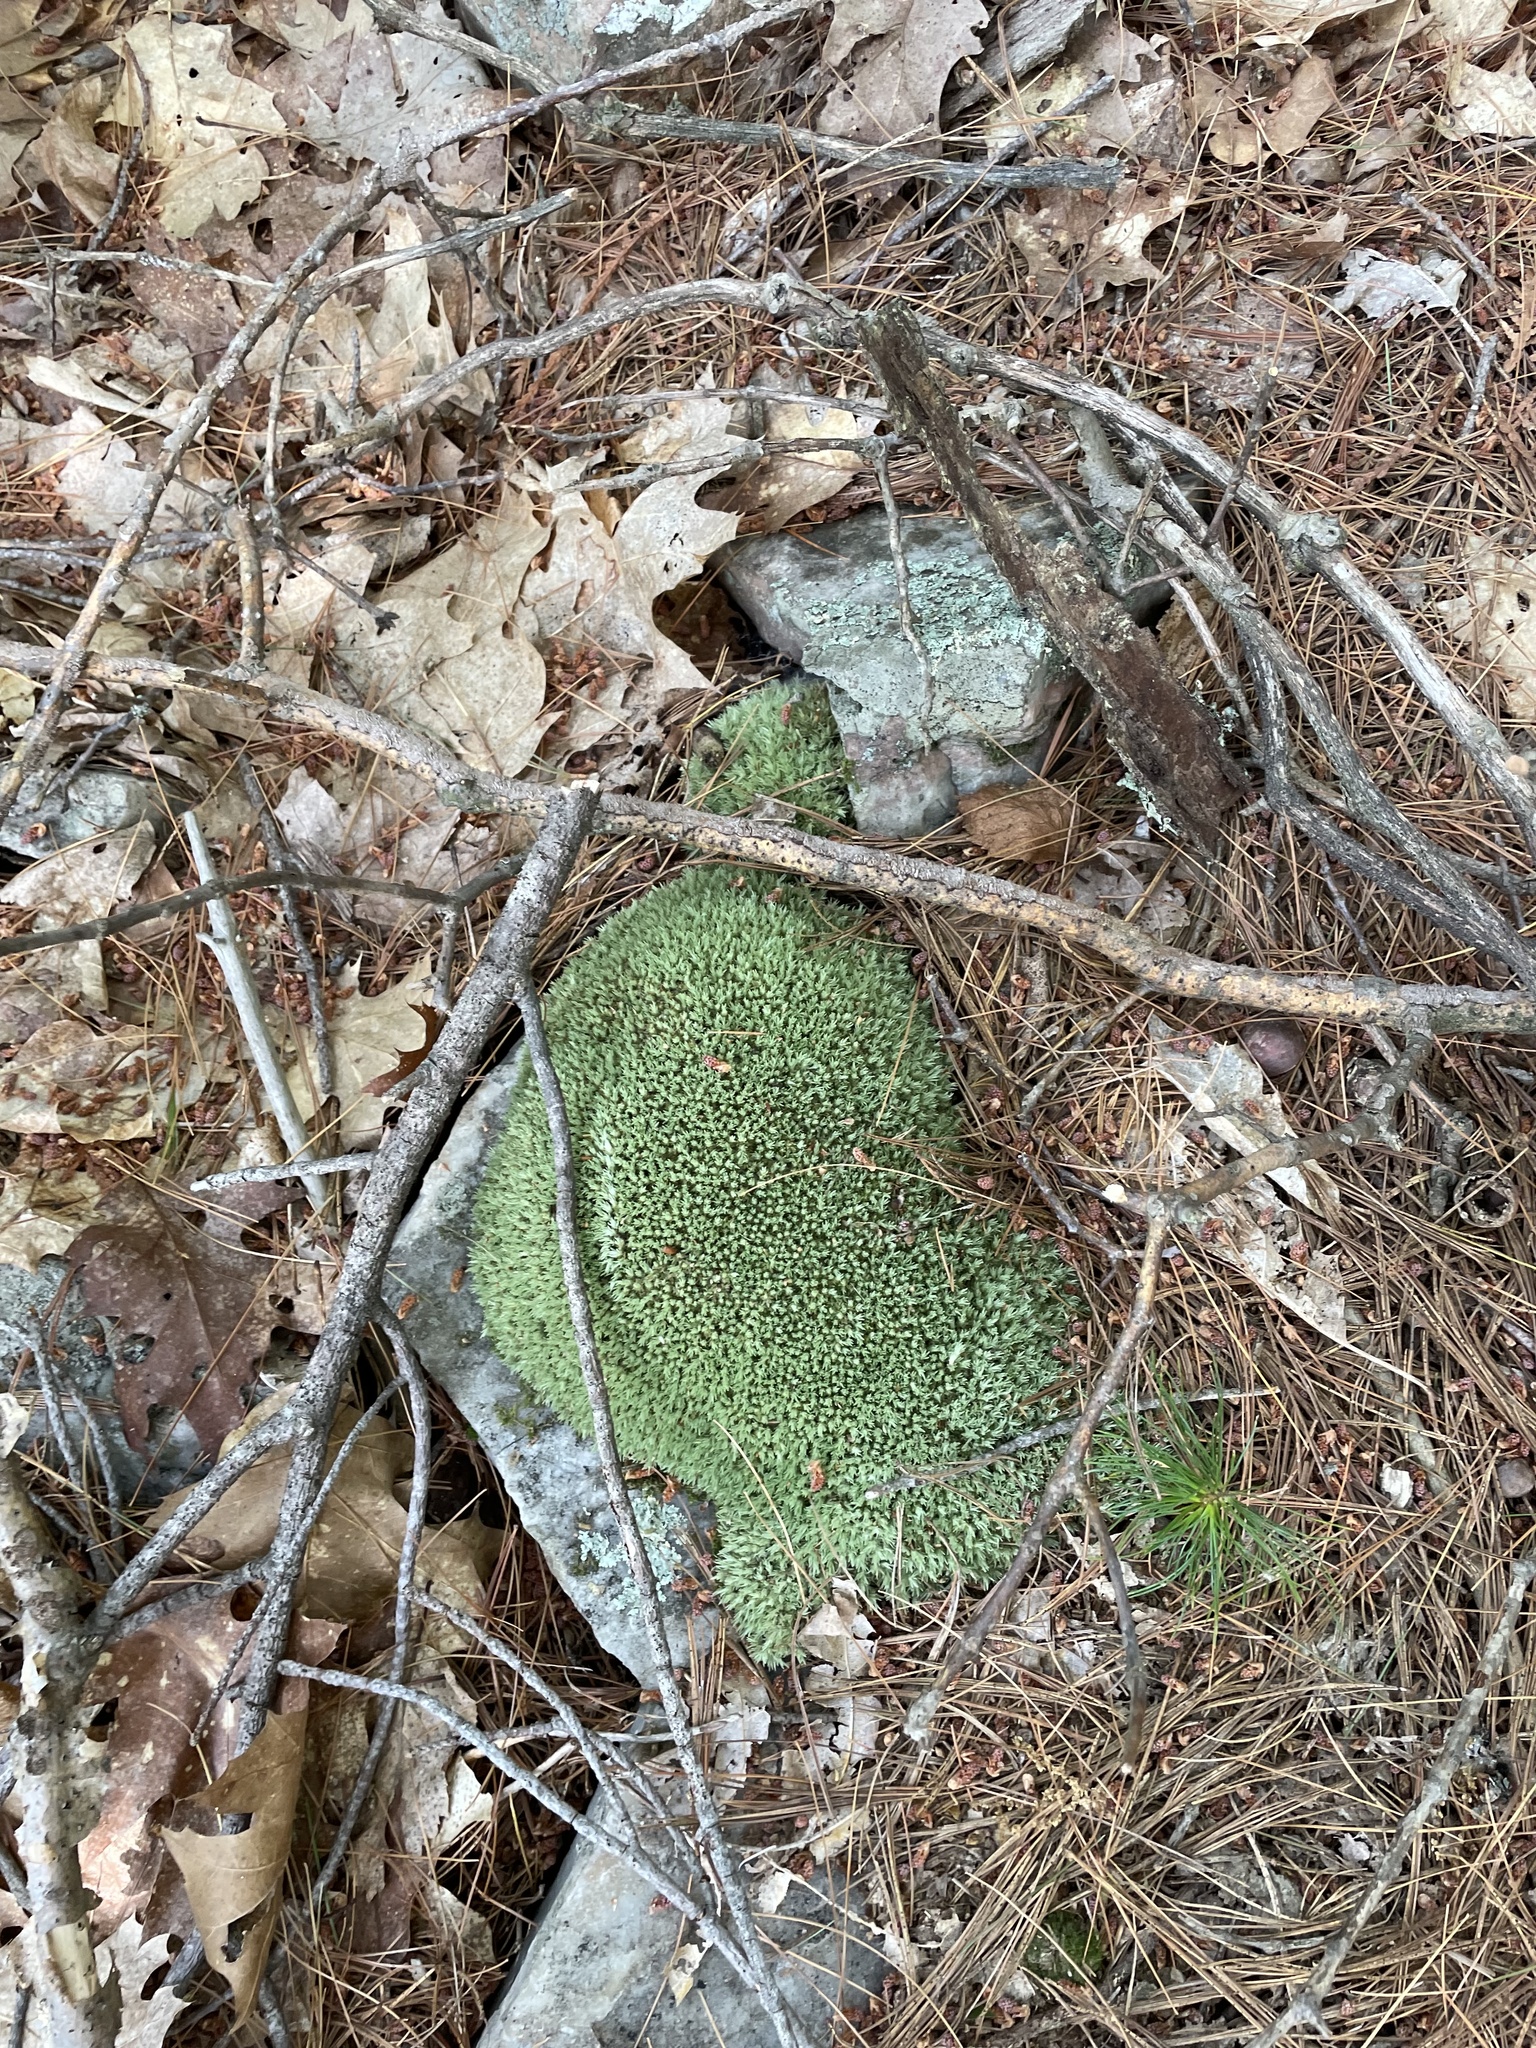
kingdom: Plantae
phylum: Bryophyta
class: Bryopsida
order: Dicranales
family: Leucobryaceae
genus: Leucobryum
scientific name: Leucobryum glaucum
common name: Large white-moss
